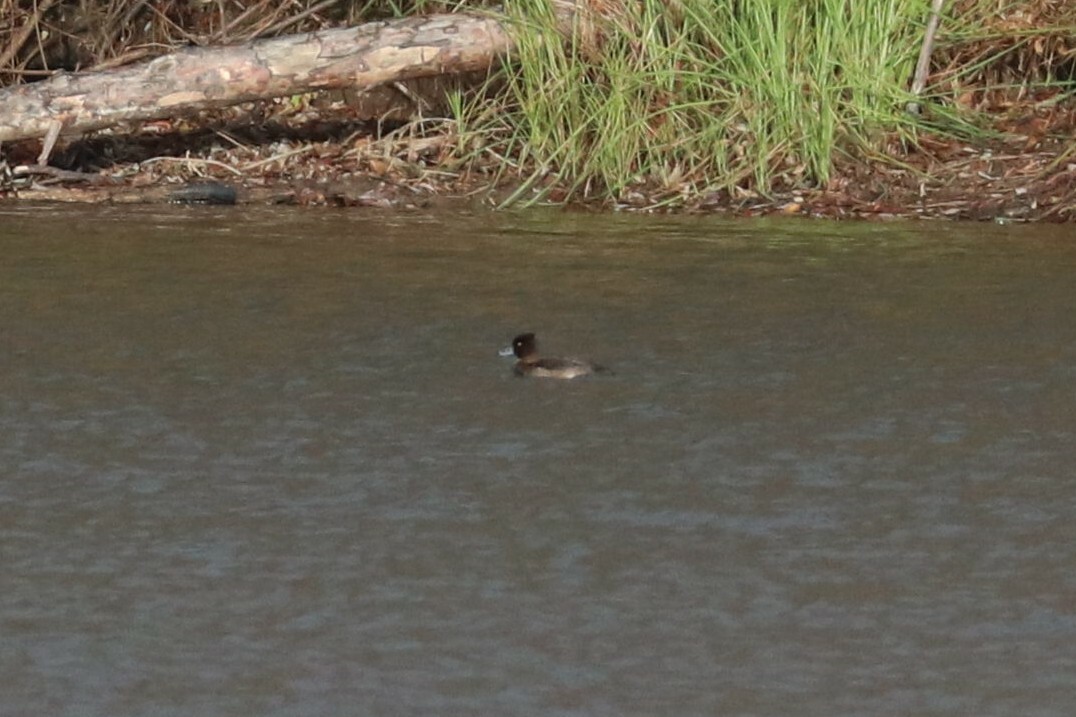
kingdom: Animalia
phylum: Chordata
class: Aves
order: Anseriformes
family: Anatidae
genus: Aythya
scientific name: Aythya fuligula
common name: Tufted duck
